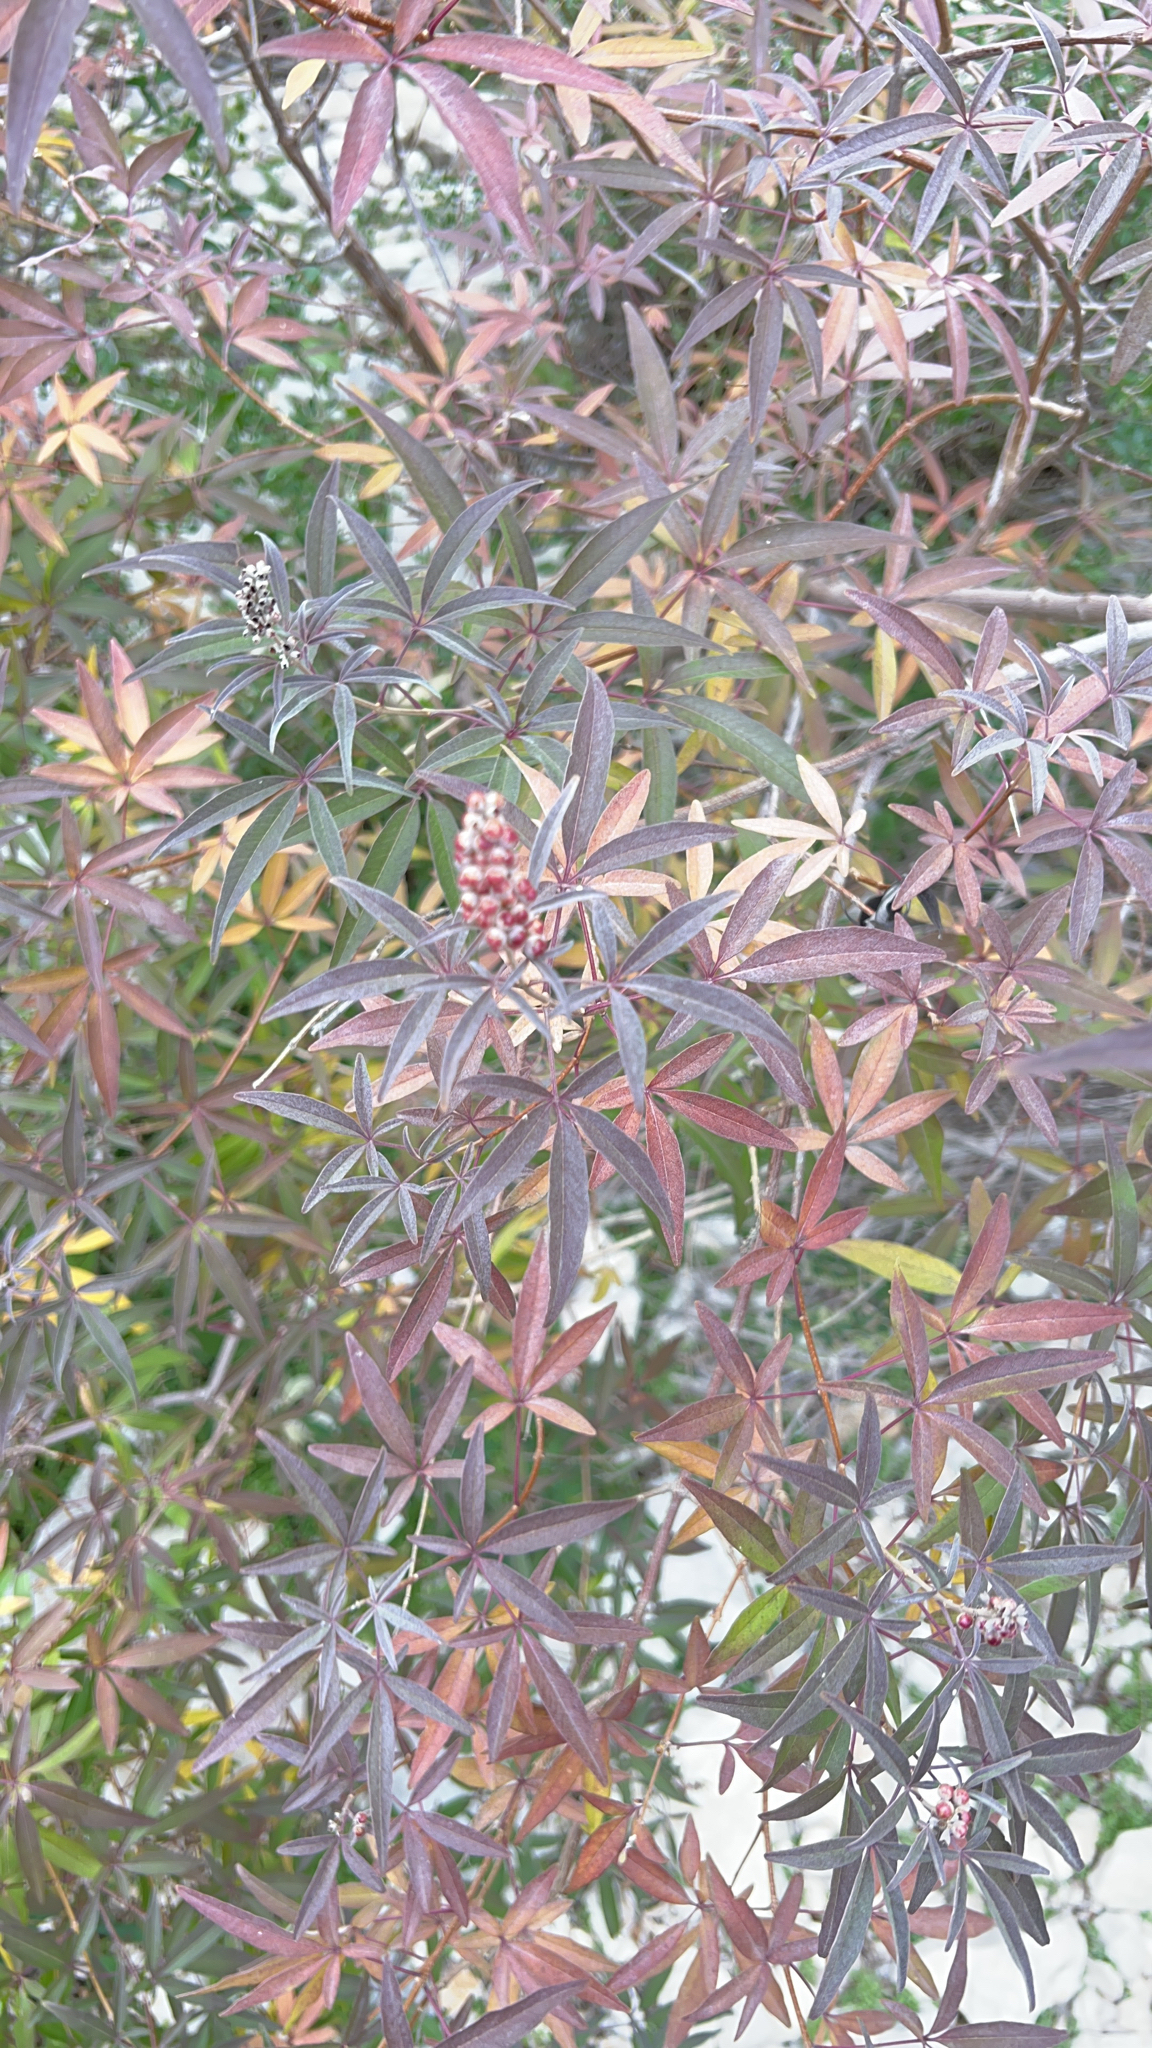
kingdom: Plantae
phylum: Tracheophyta
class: Magnoliopsida
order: Lamiales
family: Lamiaceae
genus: Vitex
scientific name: Vitex agnus-castus
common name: Chasteberry
